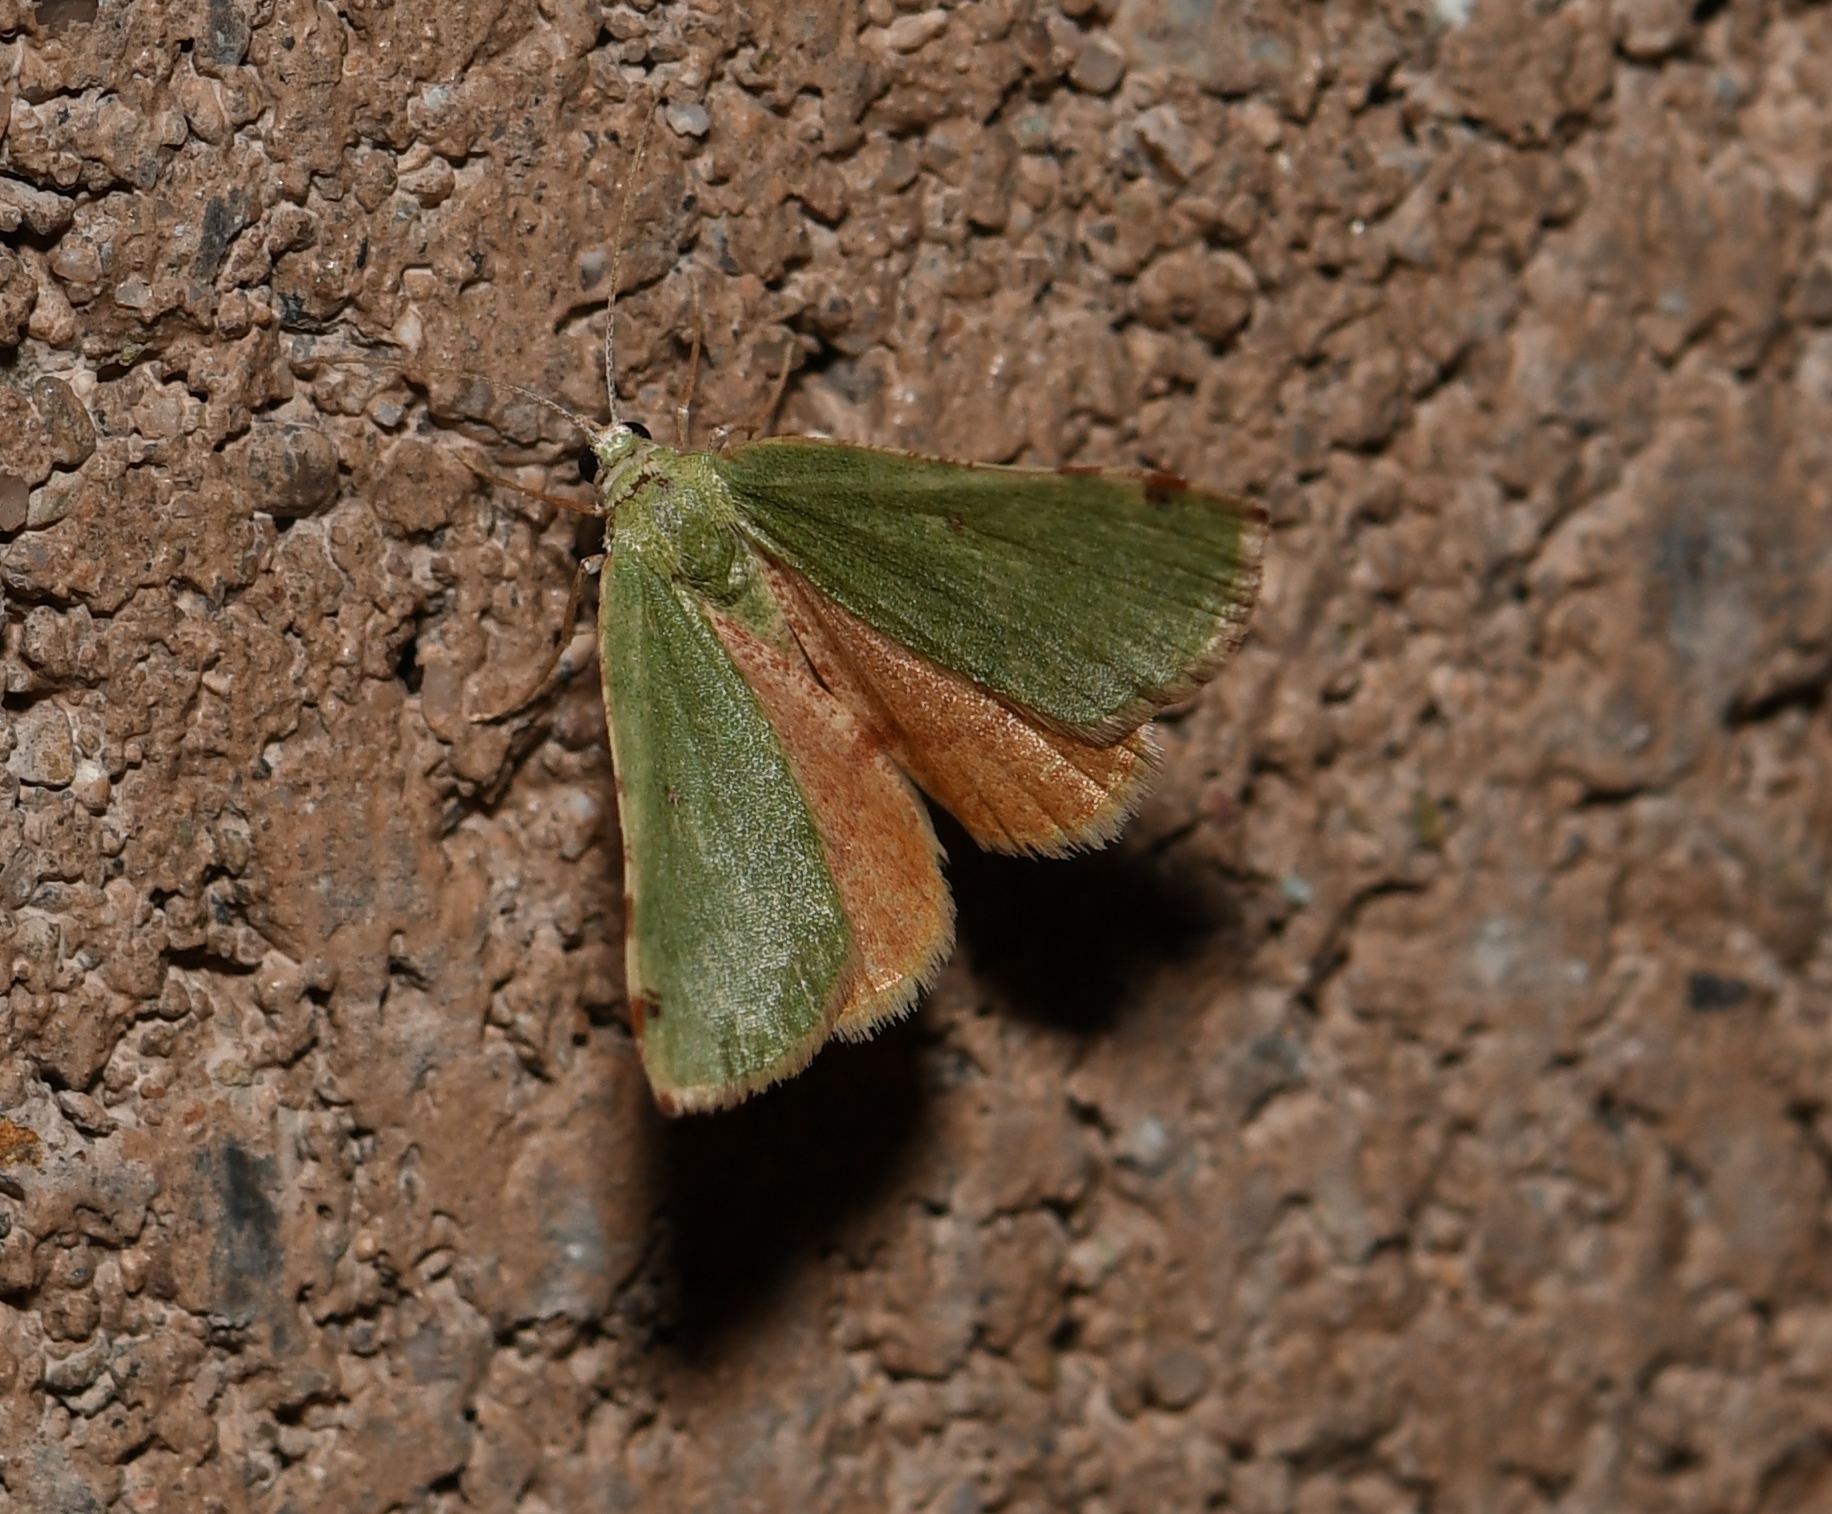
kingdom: Animalia
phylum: Arthropoda
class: Insecta
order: Lepidoptera
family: Geometridae
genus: Chloraspilates
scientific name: Chloraspilates bicoloraria
